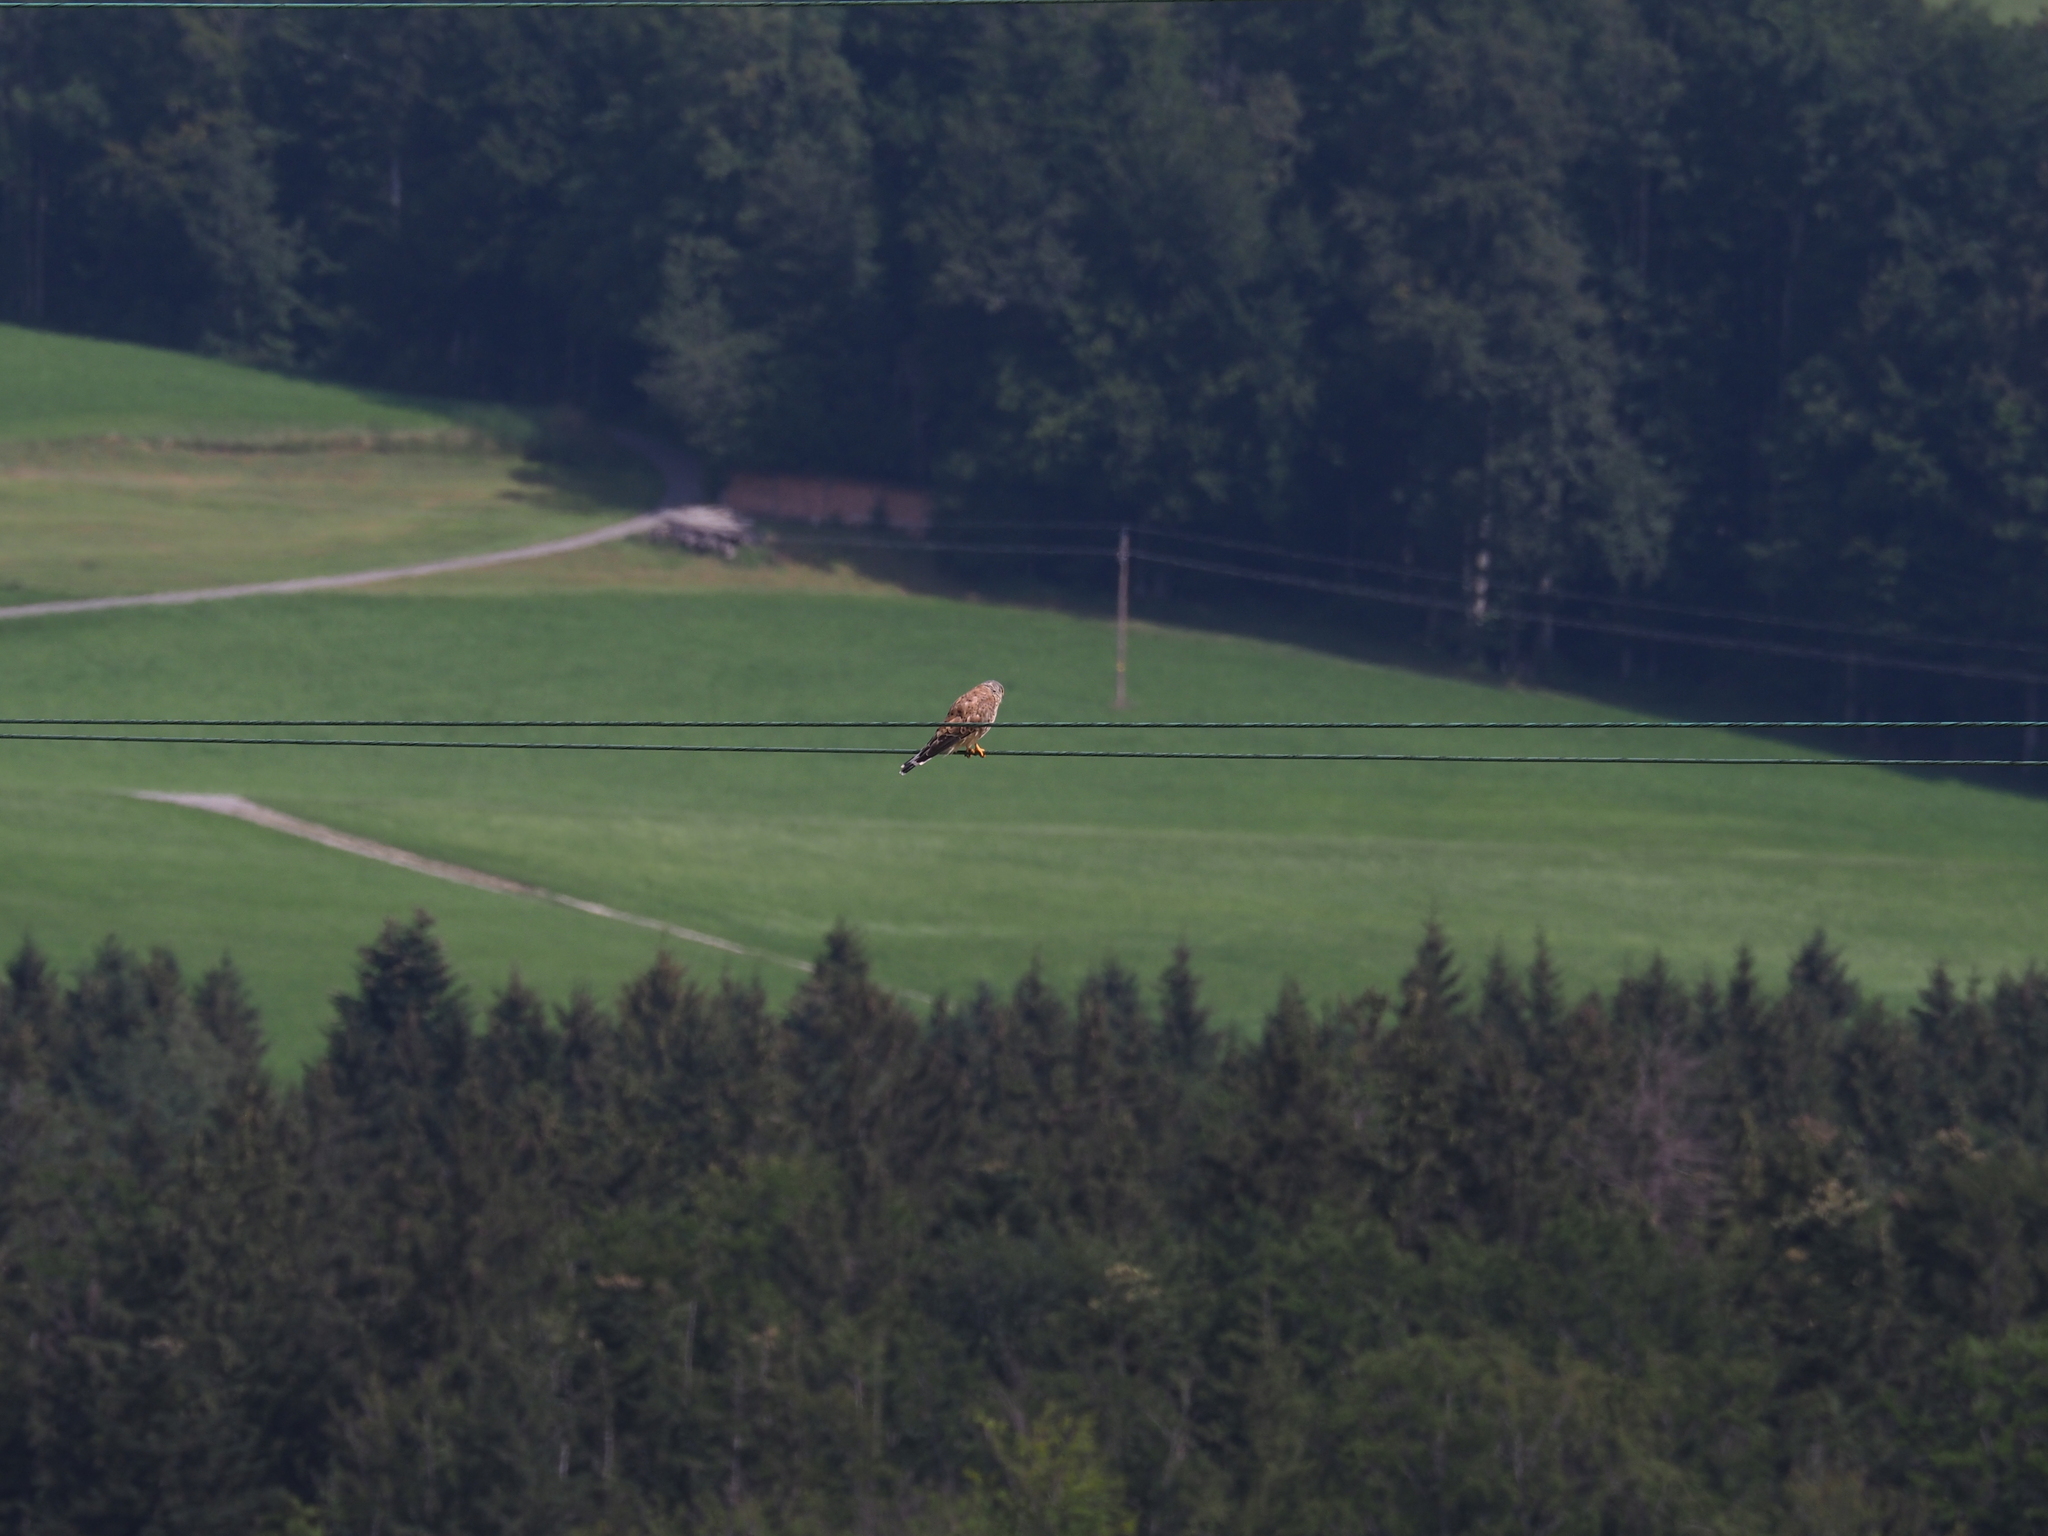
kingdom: Animalia
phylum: Chordata
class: Aves
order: Falconiformes
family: Falconidae
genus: Falco
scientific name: Falco tinnunculus
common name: Common kestrel
